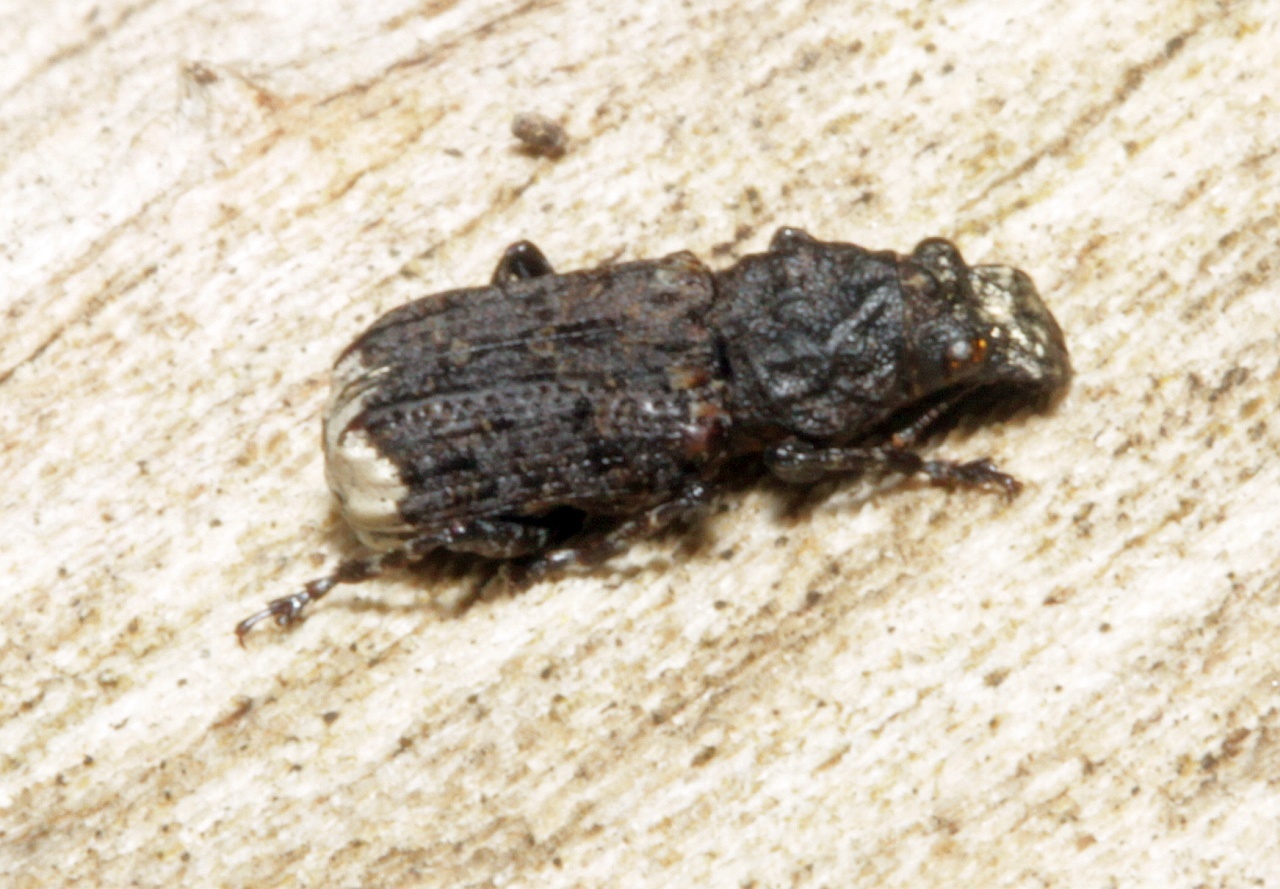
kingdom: Animalia
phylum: Arthropoda
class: Insecta
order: Coleoptera
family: Anthribidae
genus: Platyrhinus
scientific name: Platyrhinus resinosus
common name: Cramp-ball fungus weevil
